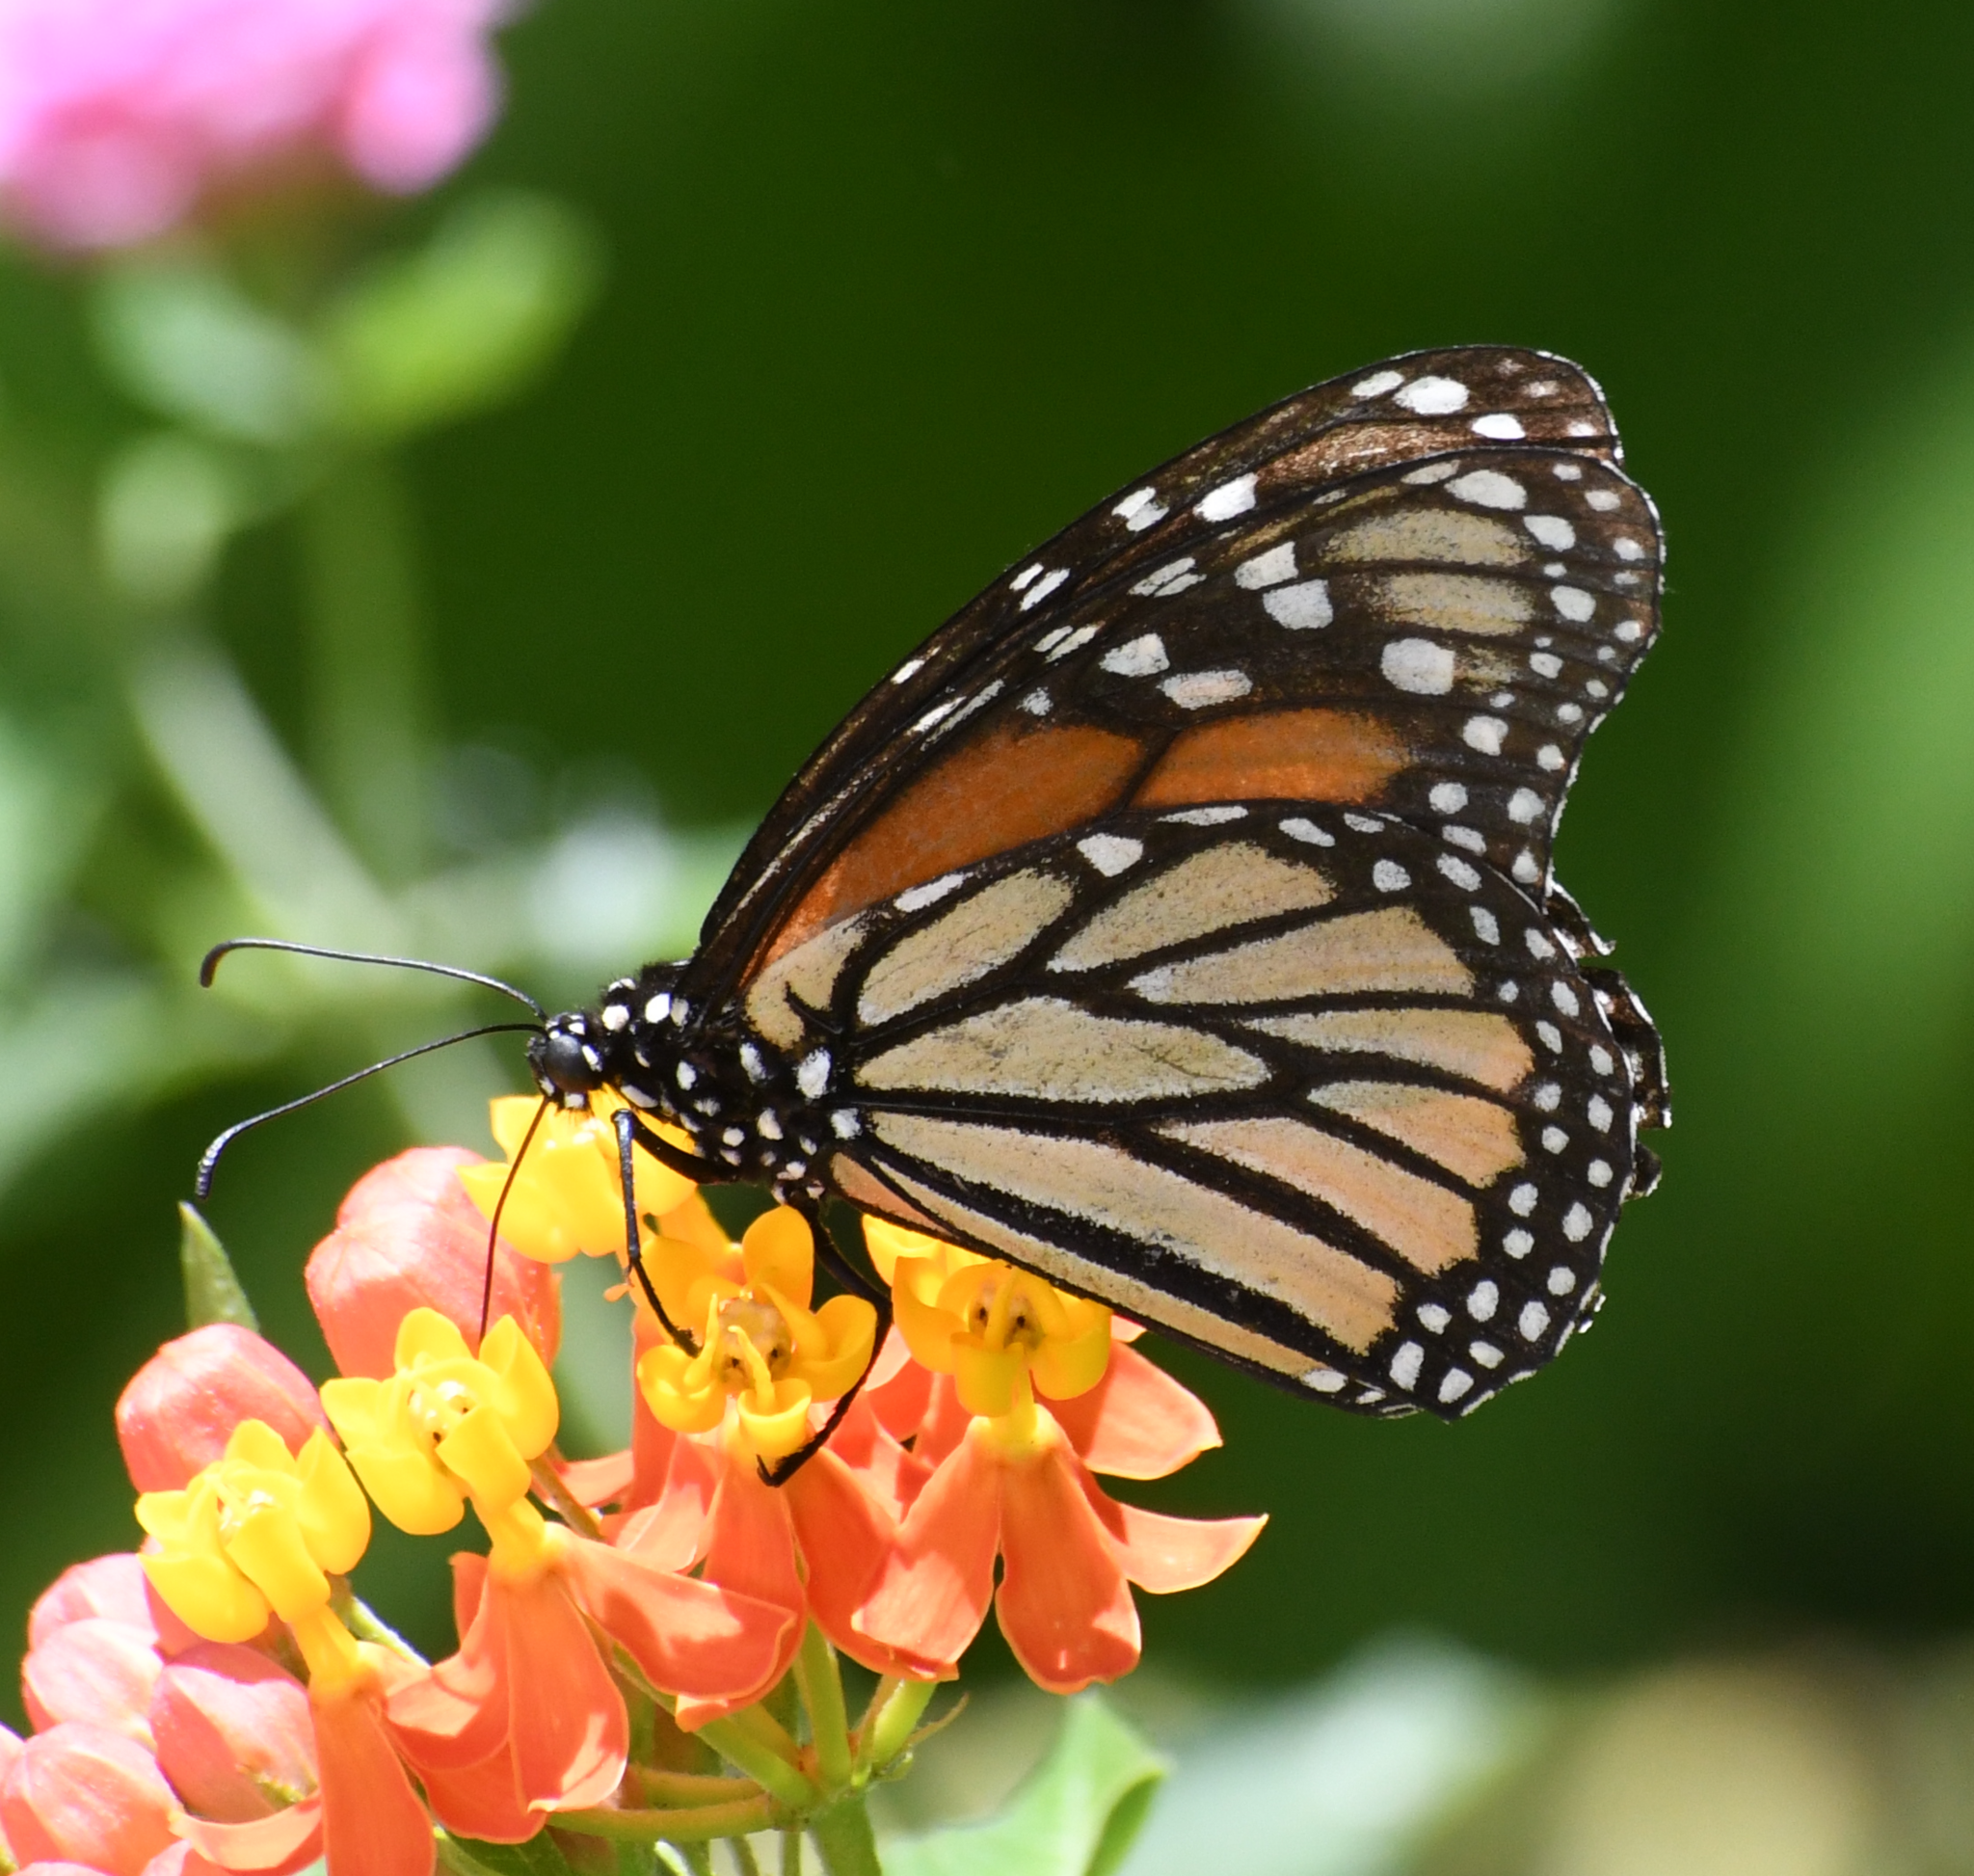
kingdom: Animalia
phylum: Arthropoda
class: Insecta
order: Lepidoptera
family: Nymphalidae
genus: Danaus
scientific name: Danaus plexippus
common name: Monarch
